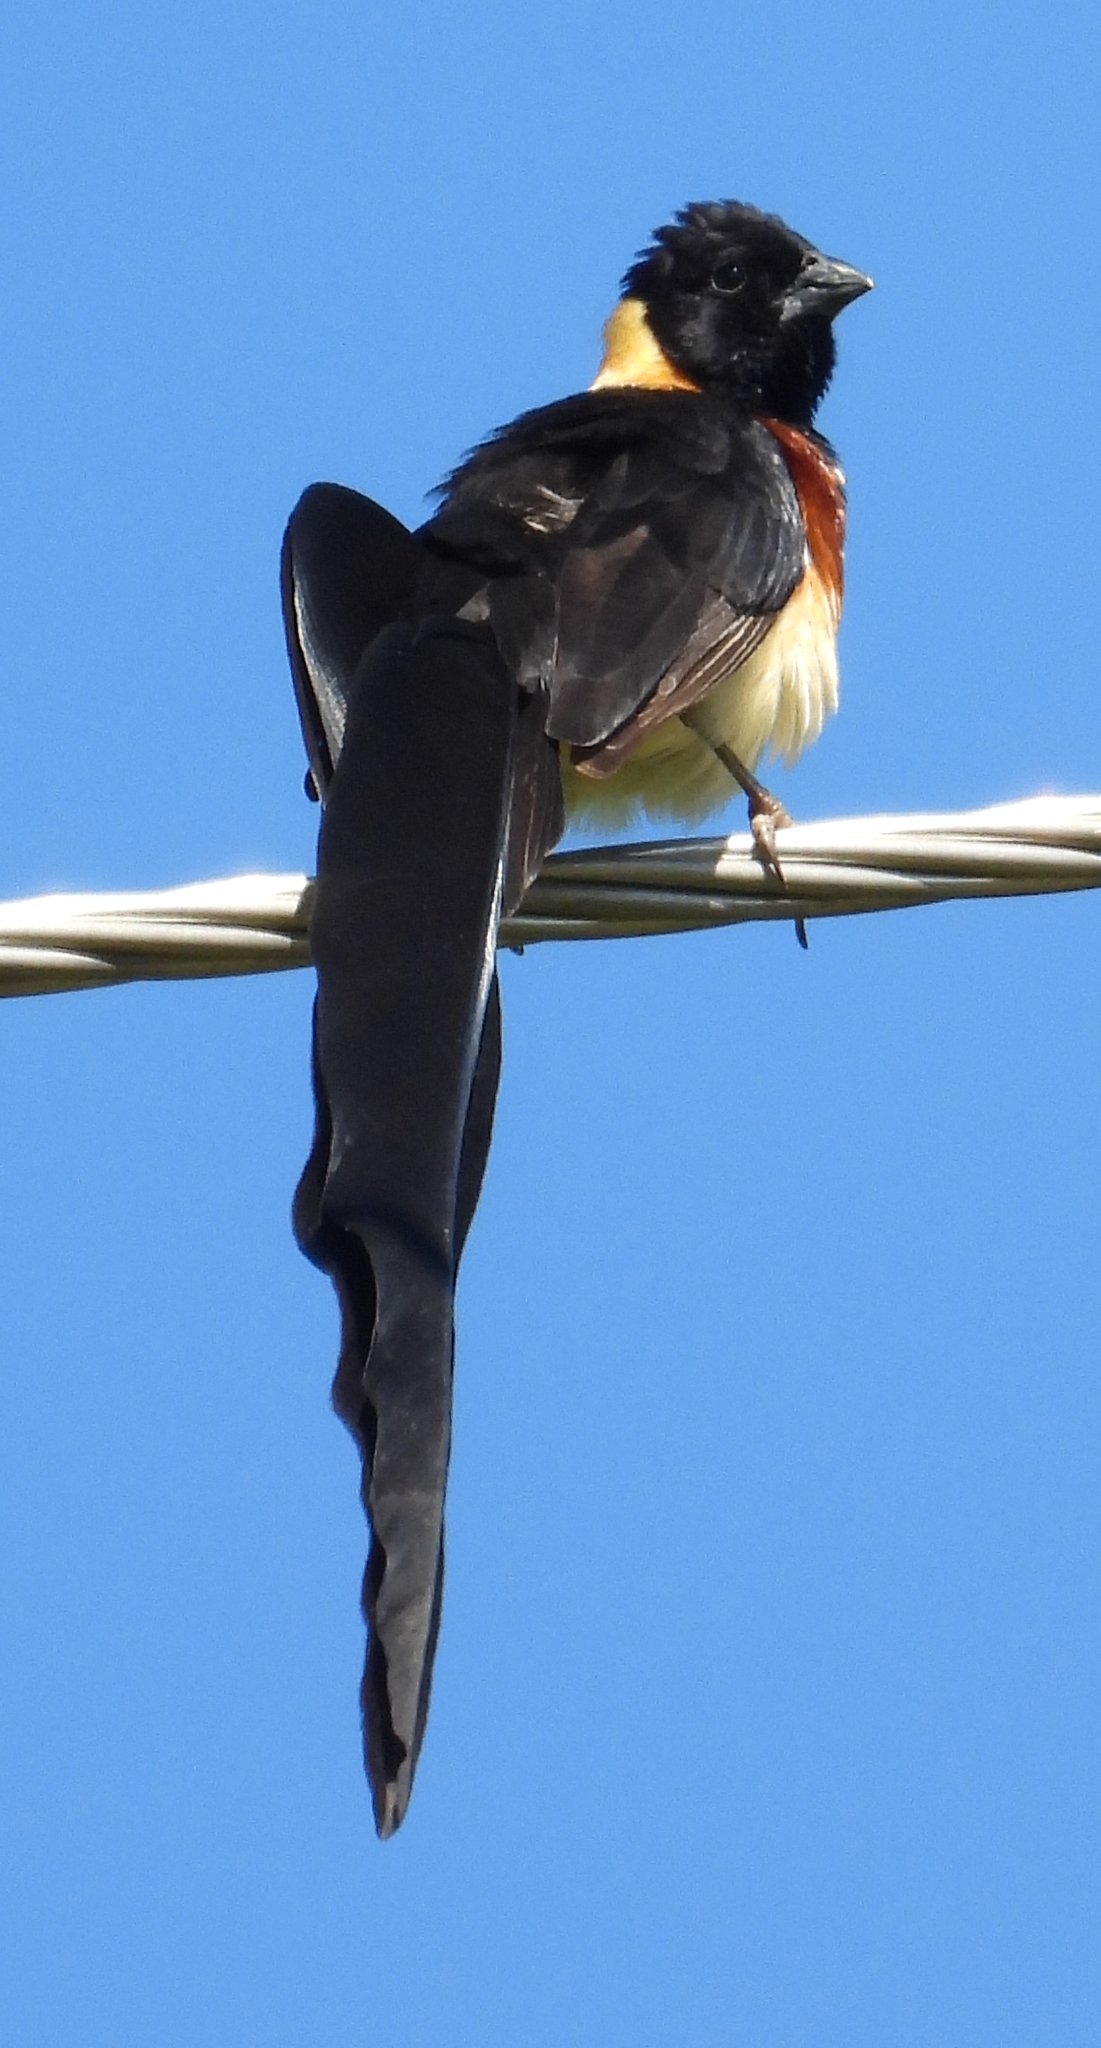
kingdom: Animalia
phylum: Chordata
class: Aves
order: Passeriformes
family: Viduidae
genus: Vidua
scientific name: Vidua paradisaea
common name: Long-tailed paradise whydah
